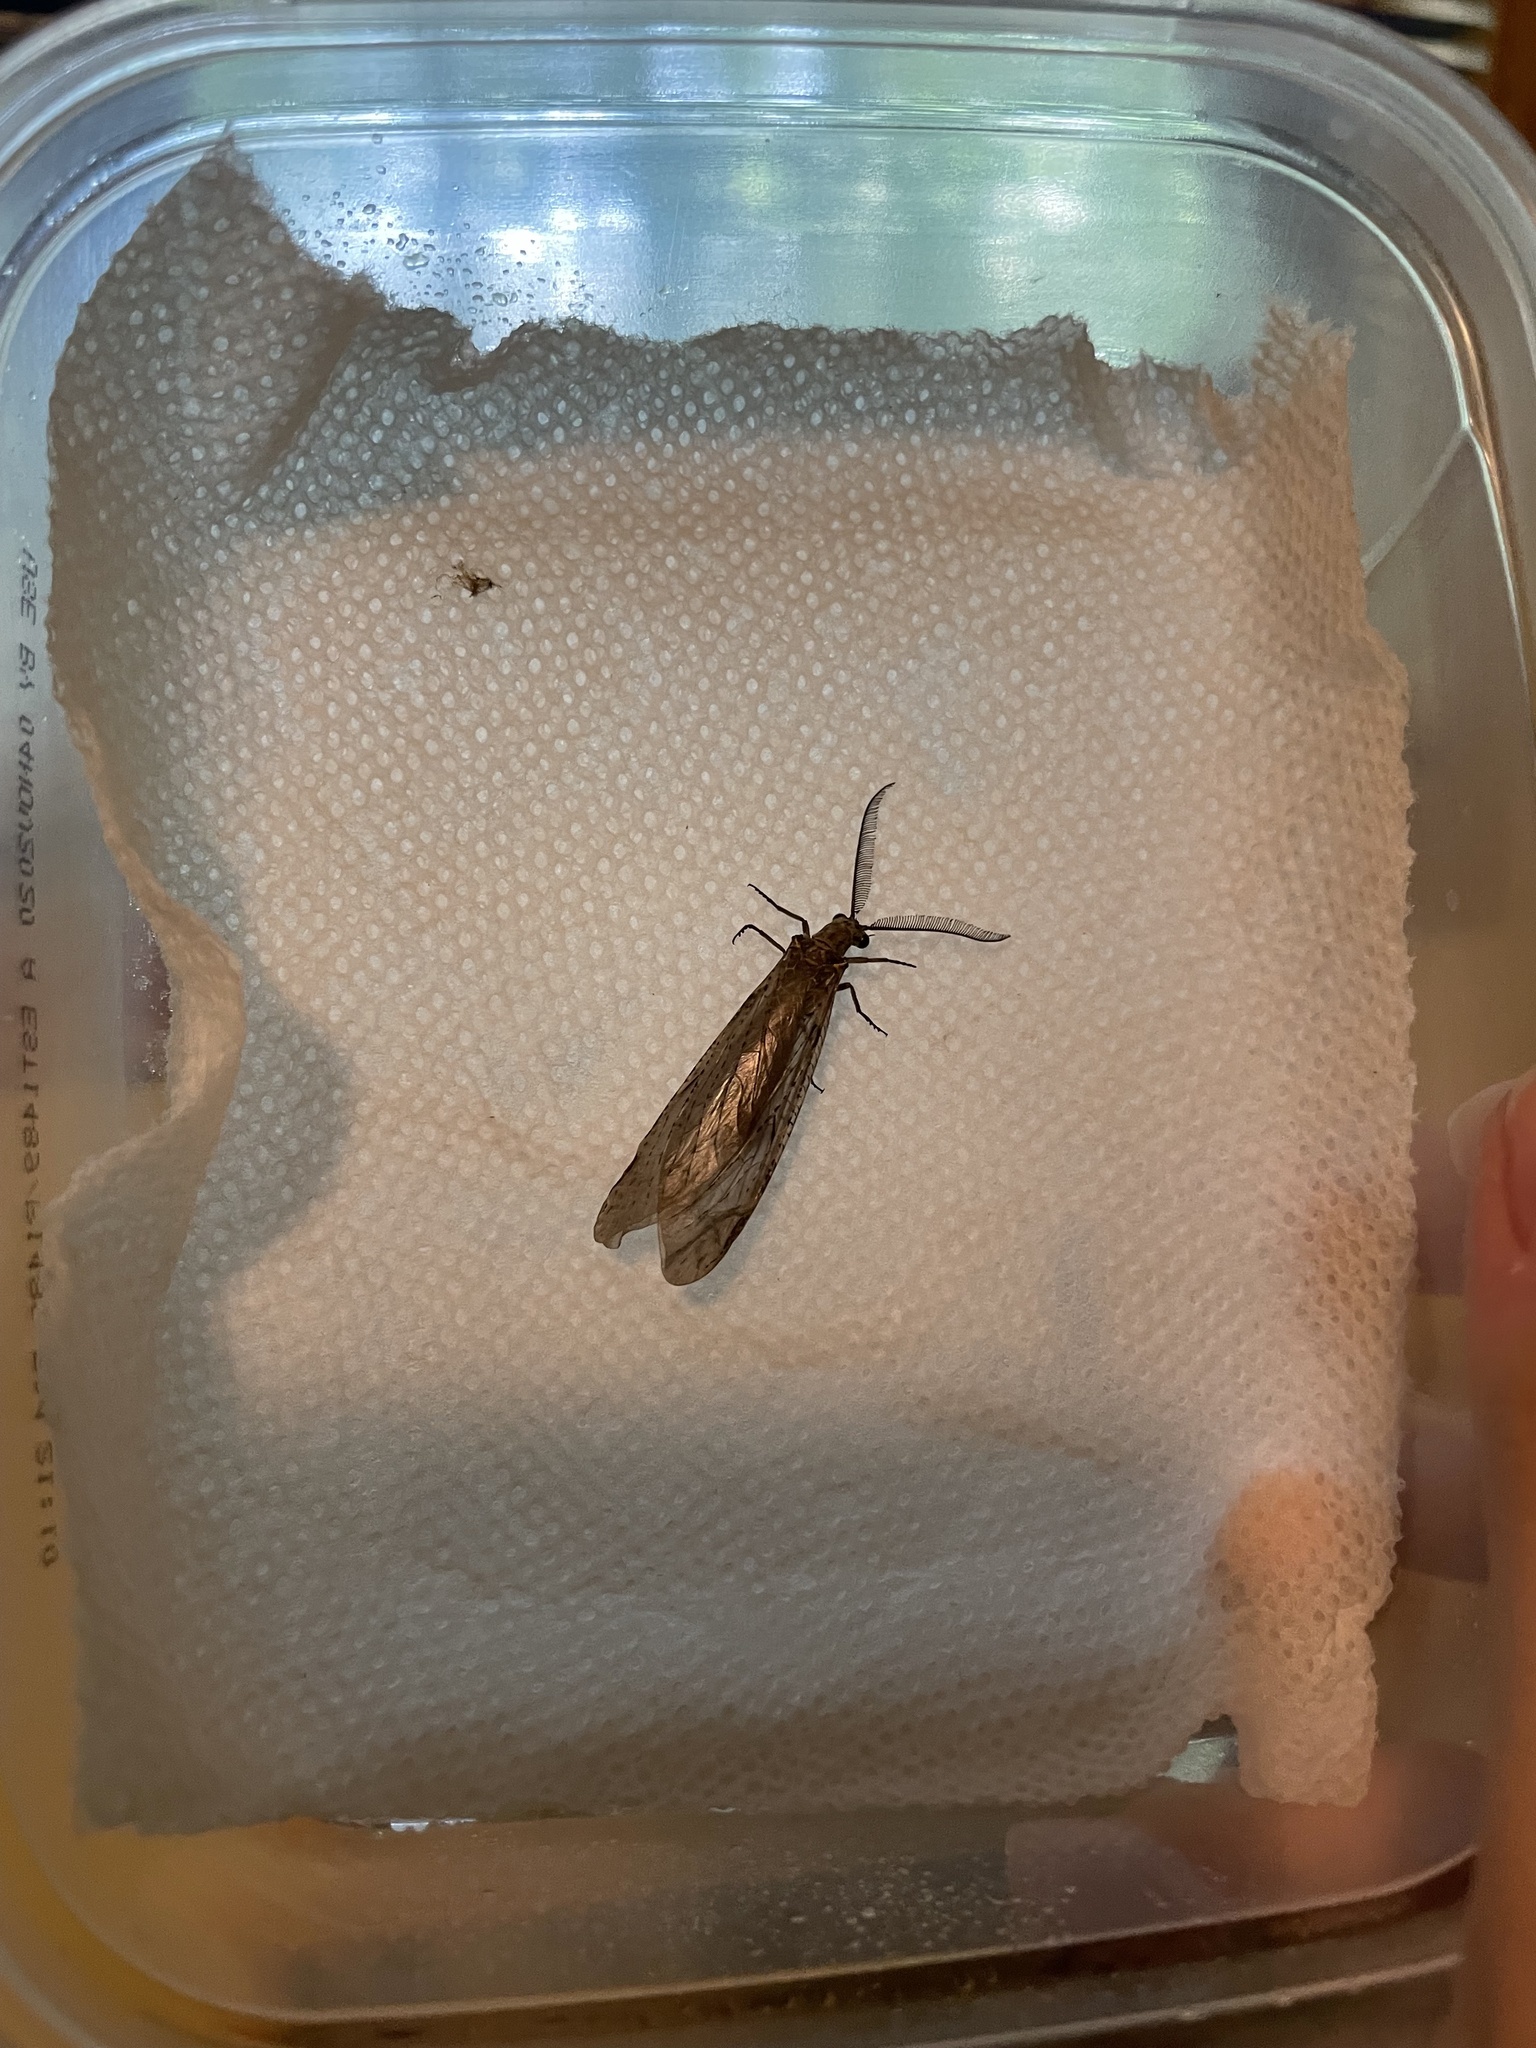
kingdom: Animalia
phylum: Arthropoda
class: Insecta
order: Megaloptera
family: Corydalidae
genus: Chauliodes
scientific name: Chauliodes rastricornis
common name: Spring fishfly
